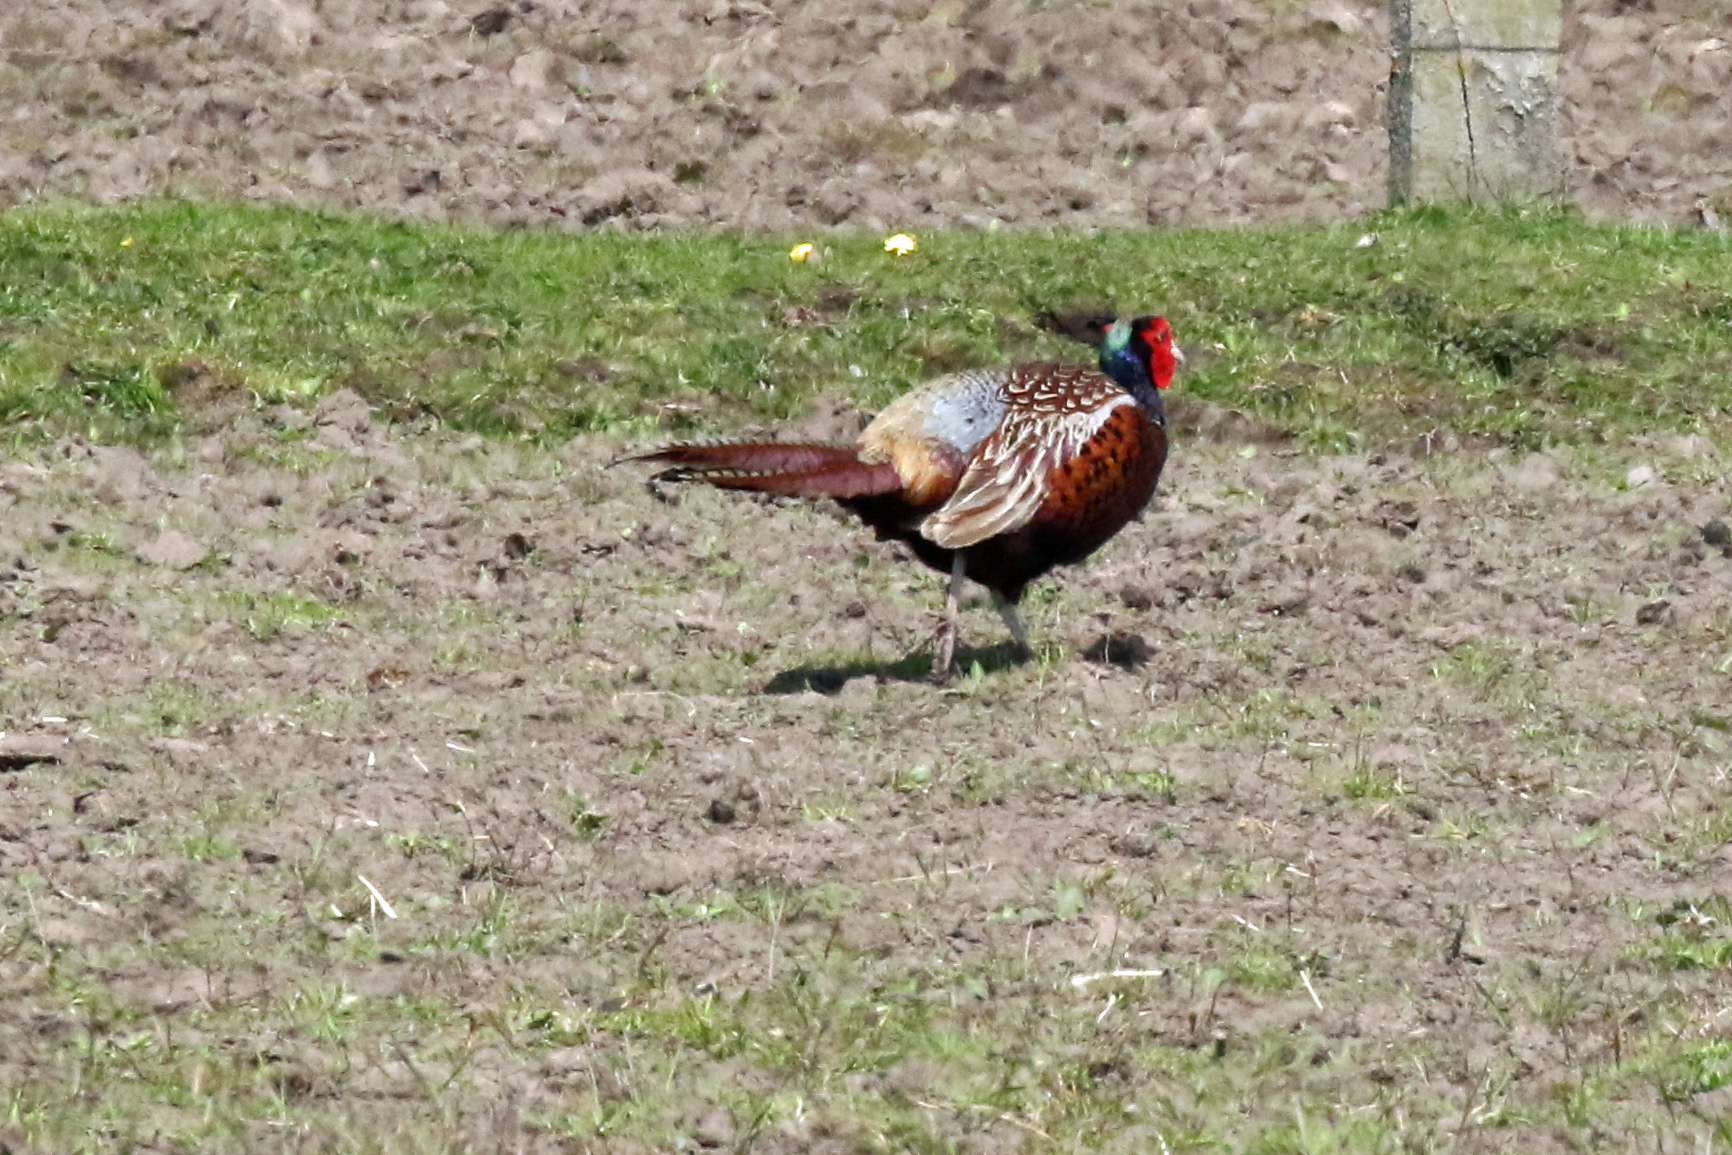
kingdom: Animalia
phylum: Chordata
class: Aves
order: Galliformes
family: Phasianidae
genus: Phasianus
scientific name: Phasianus colchicus
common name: Common pheasant
